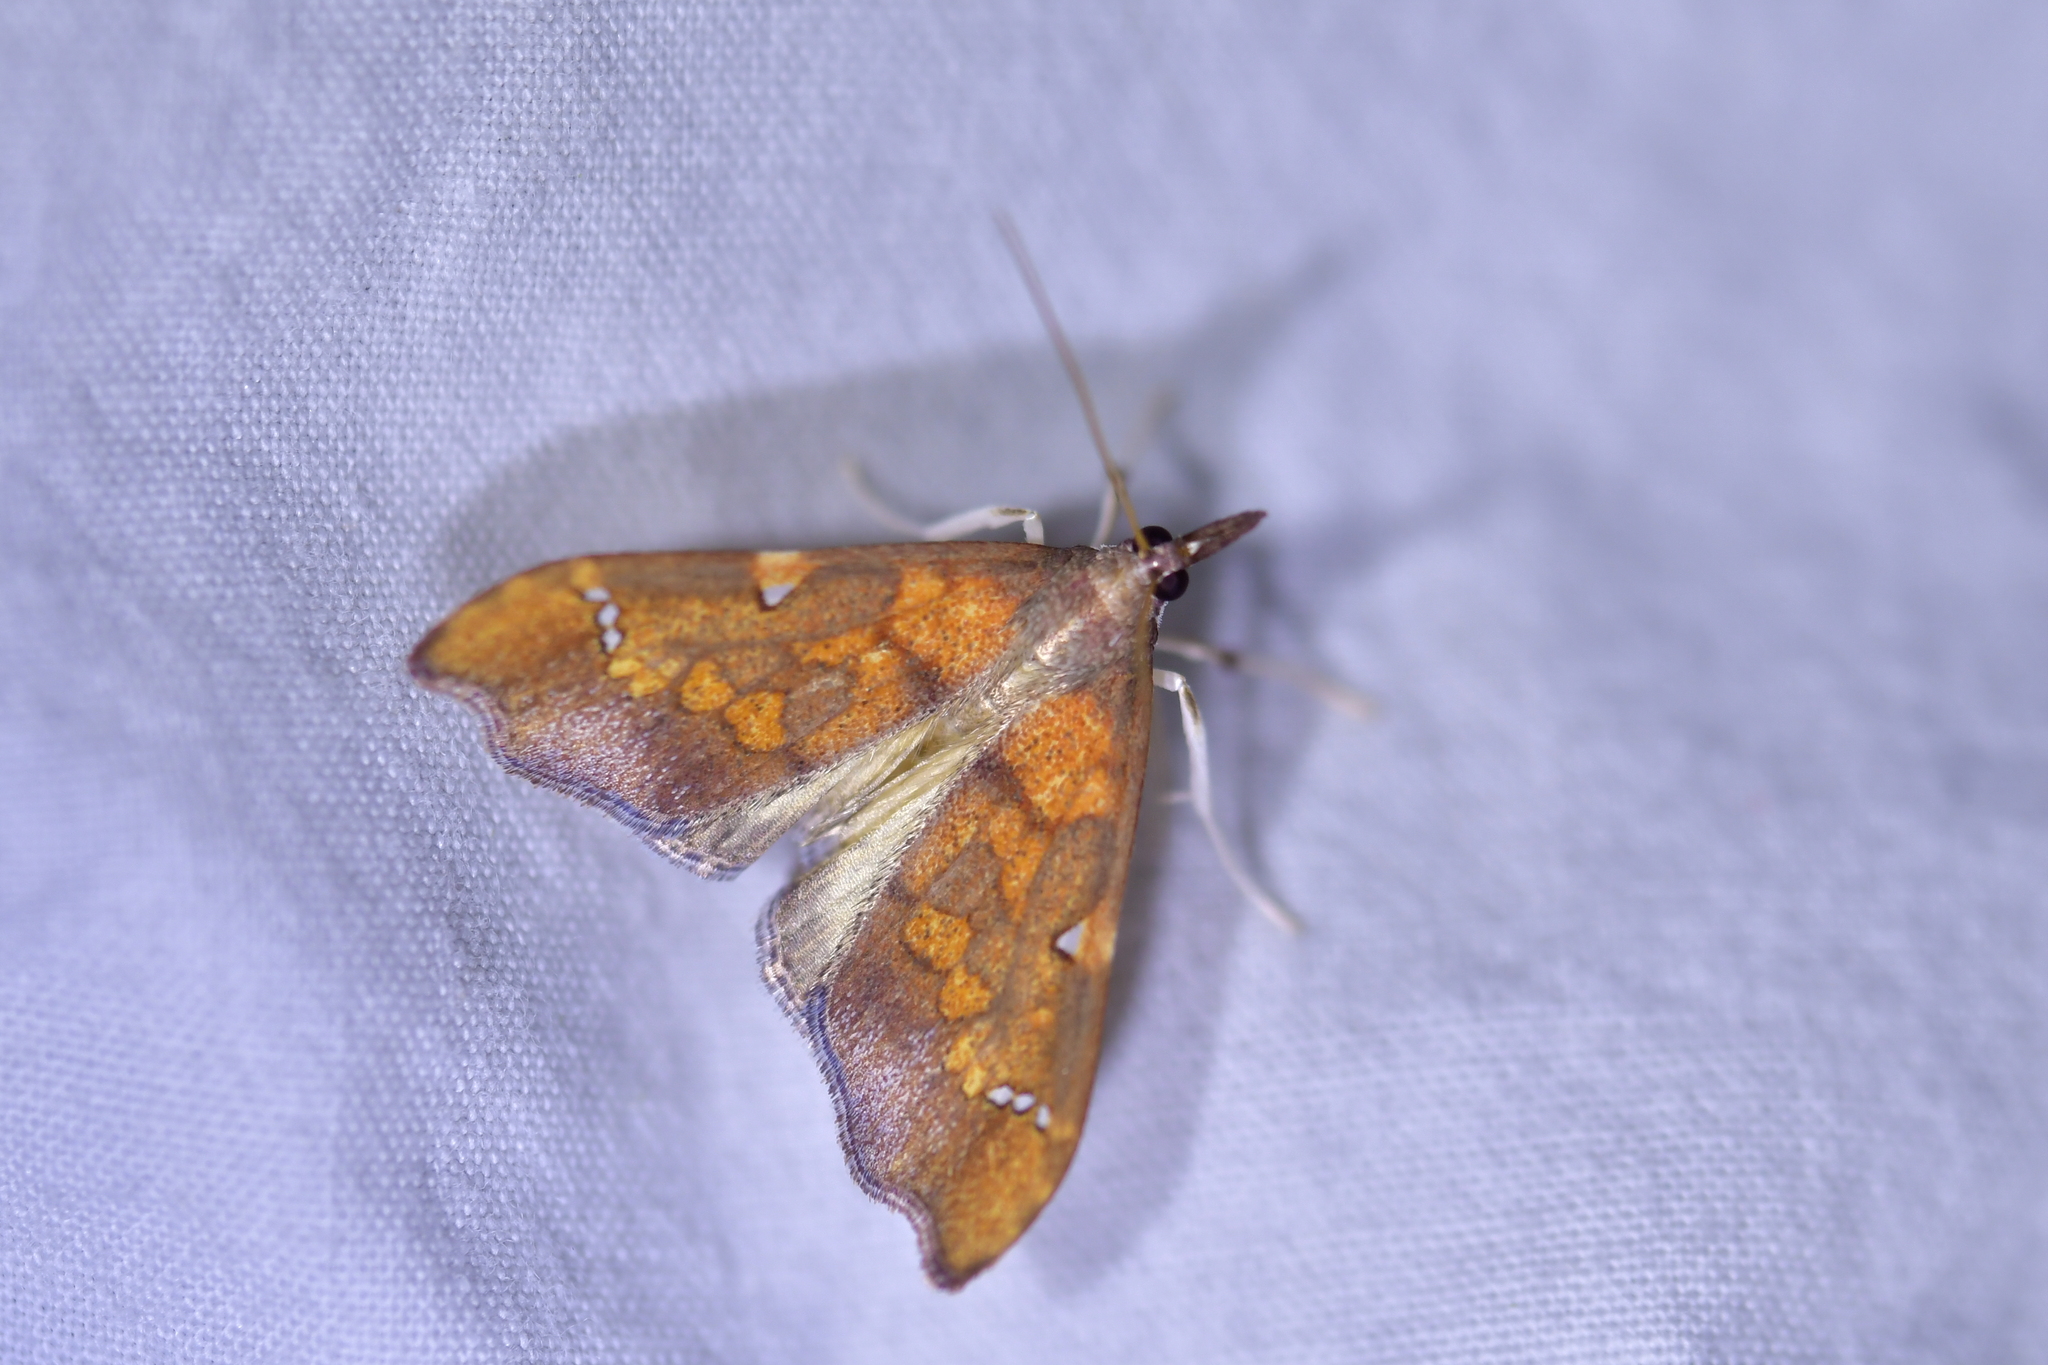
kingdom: Animalia
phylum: Arthropoda
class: Insecta
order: Lepidoptera
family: Crambidae
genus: Deana
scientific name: Deana hybreasalis
